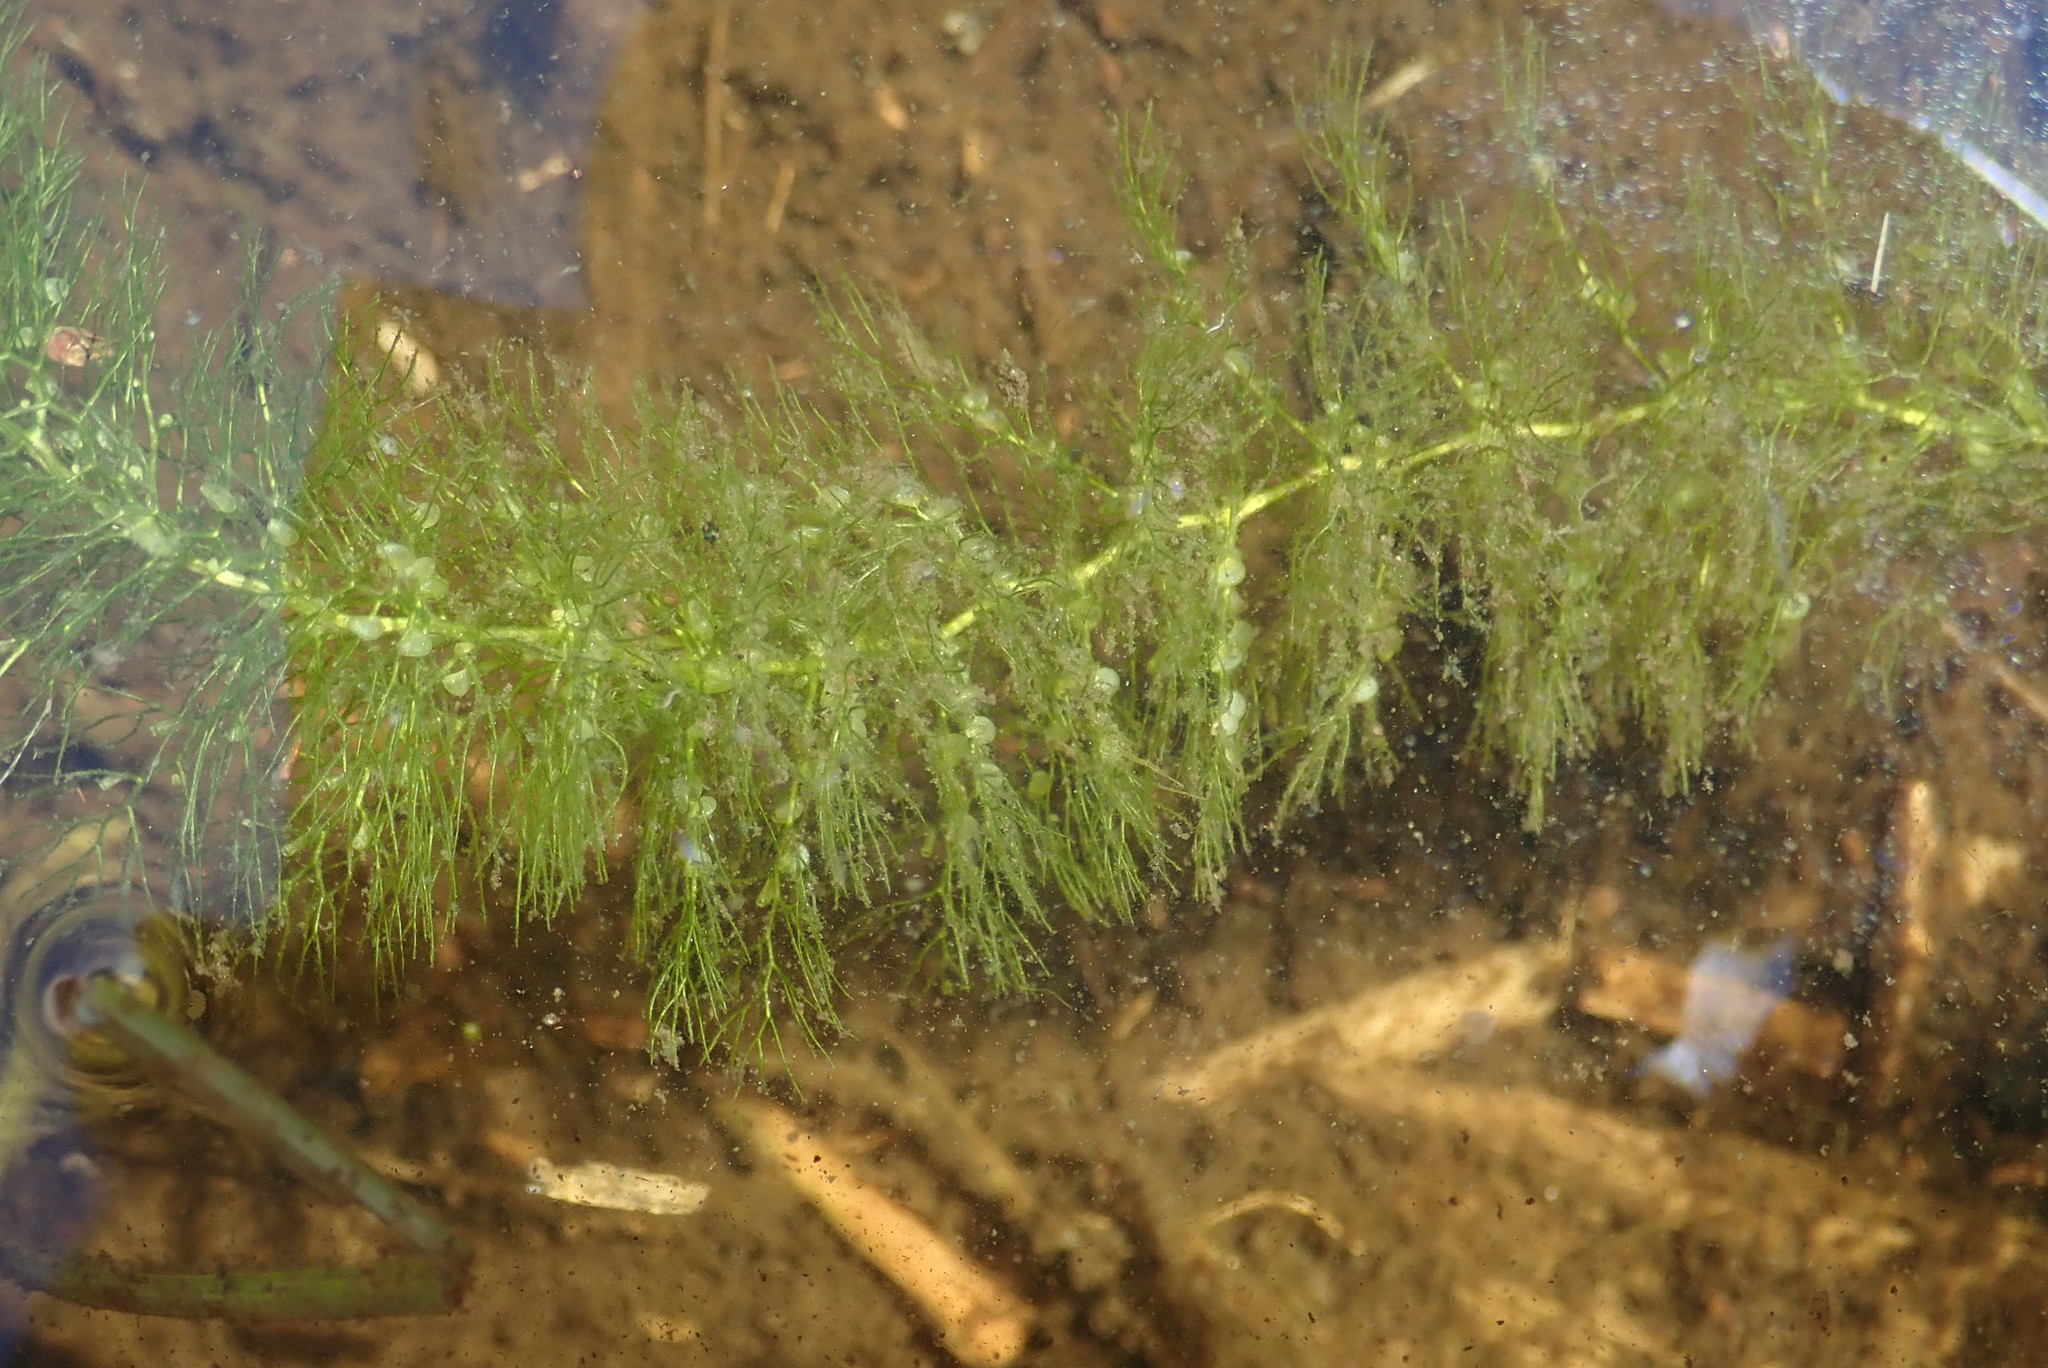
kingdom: Plantae
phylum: Tracheophyta
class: Magnoliopsida
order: Lamiales
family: Lentibulariaceae
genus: Utricularia
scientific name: Utricularia macrorhiza
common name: Common bladderwort
